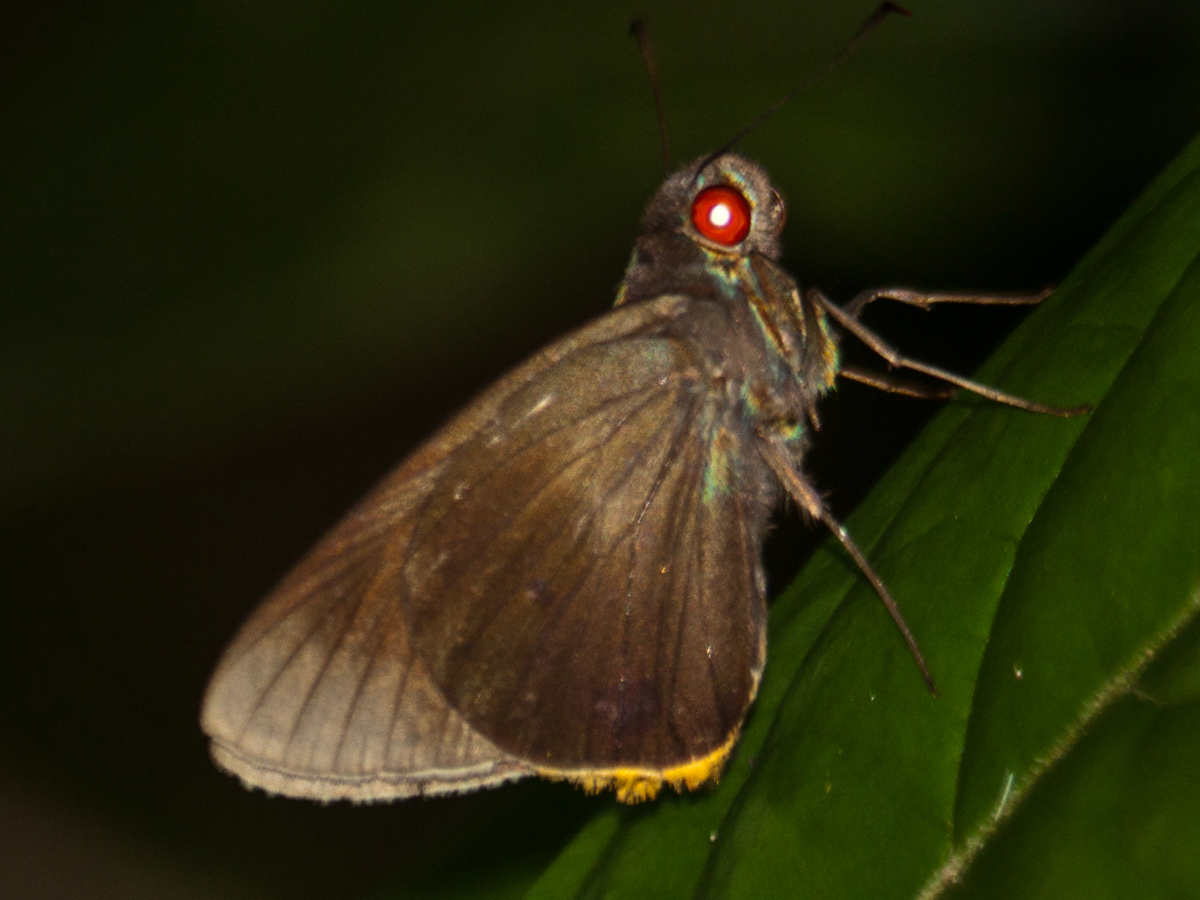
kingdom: Animalia
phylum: Arthropoda
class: Insecta
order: Lepidoptera
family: Hesperiidae
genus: Matapa
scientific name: Matapa cresta
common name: Fringed redeye
